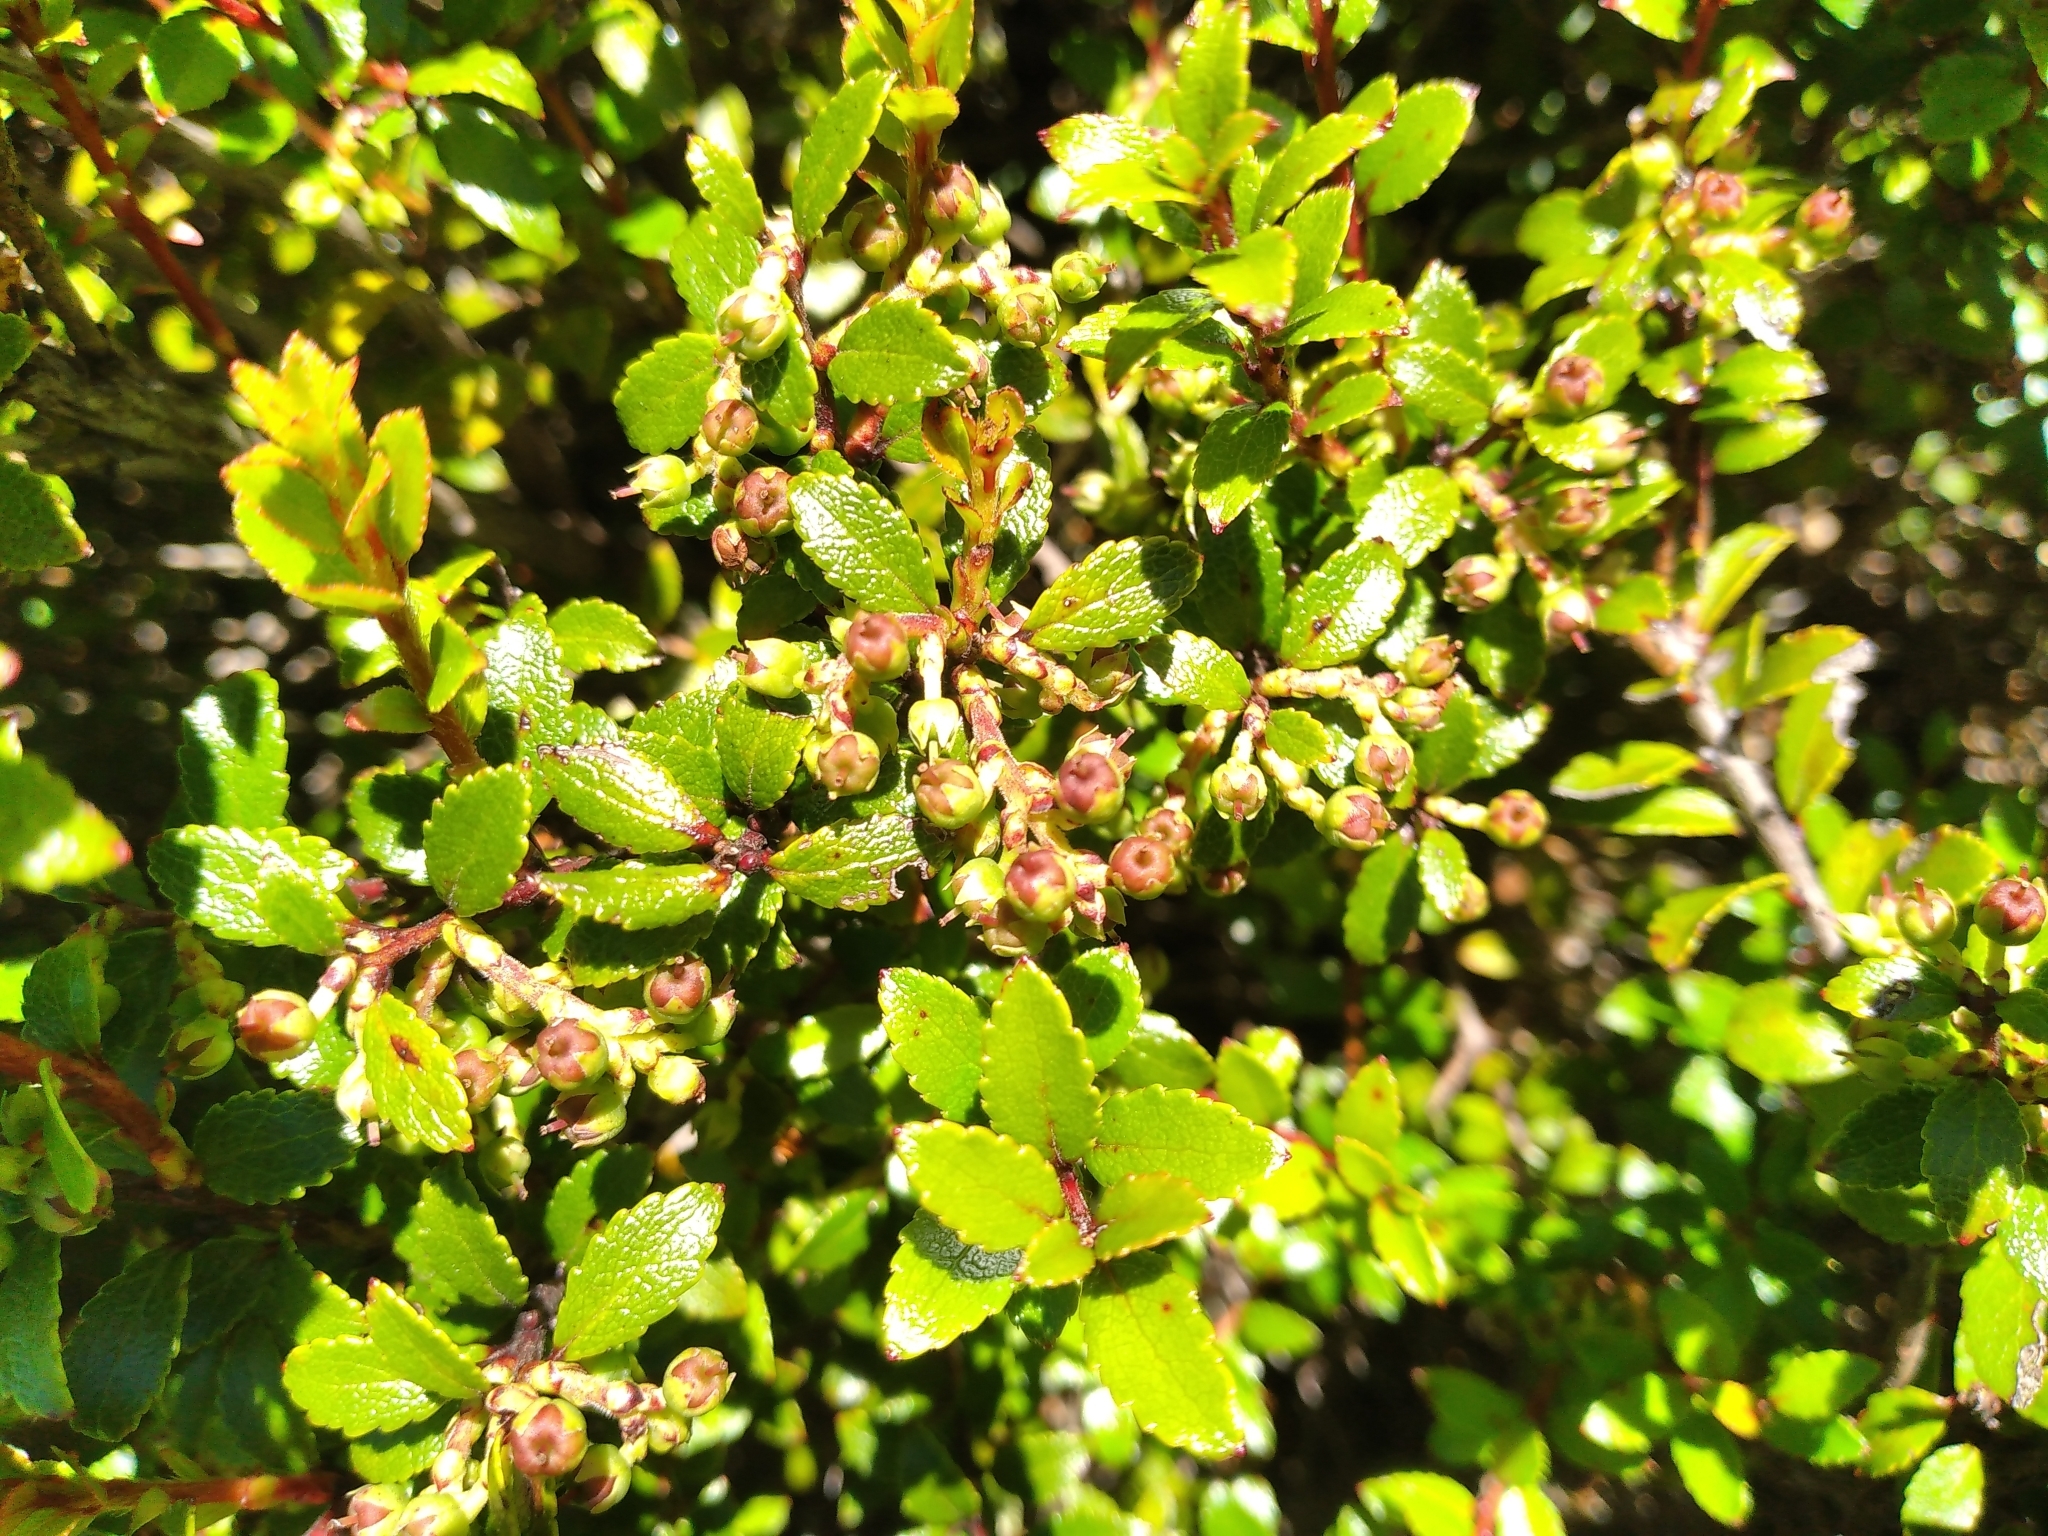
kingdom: Plantae
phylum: Tracheophyta
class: Magnoliopsida
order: Ericales
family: Ericaceae
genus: Gaultheria
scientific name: Gaultheria rupestris
